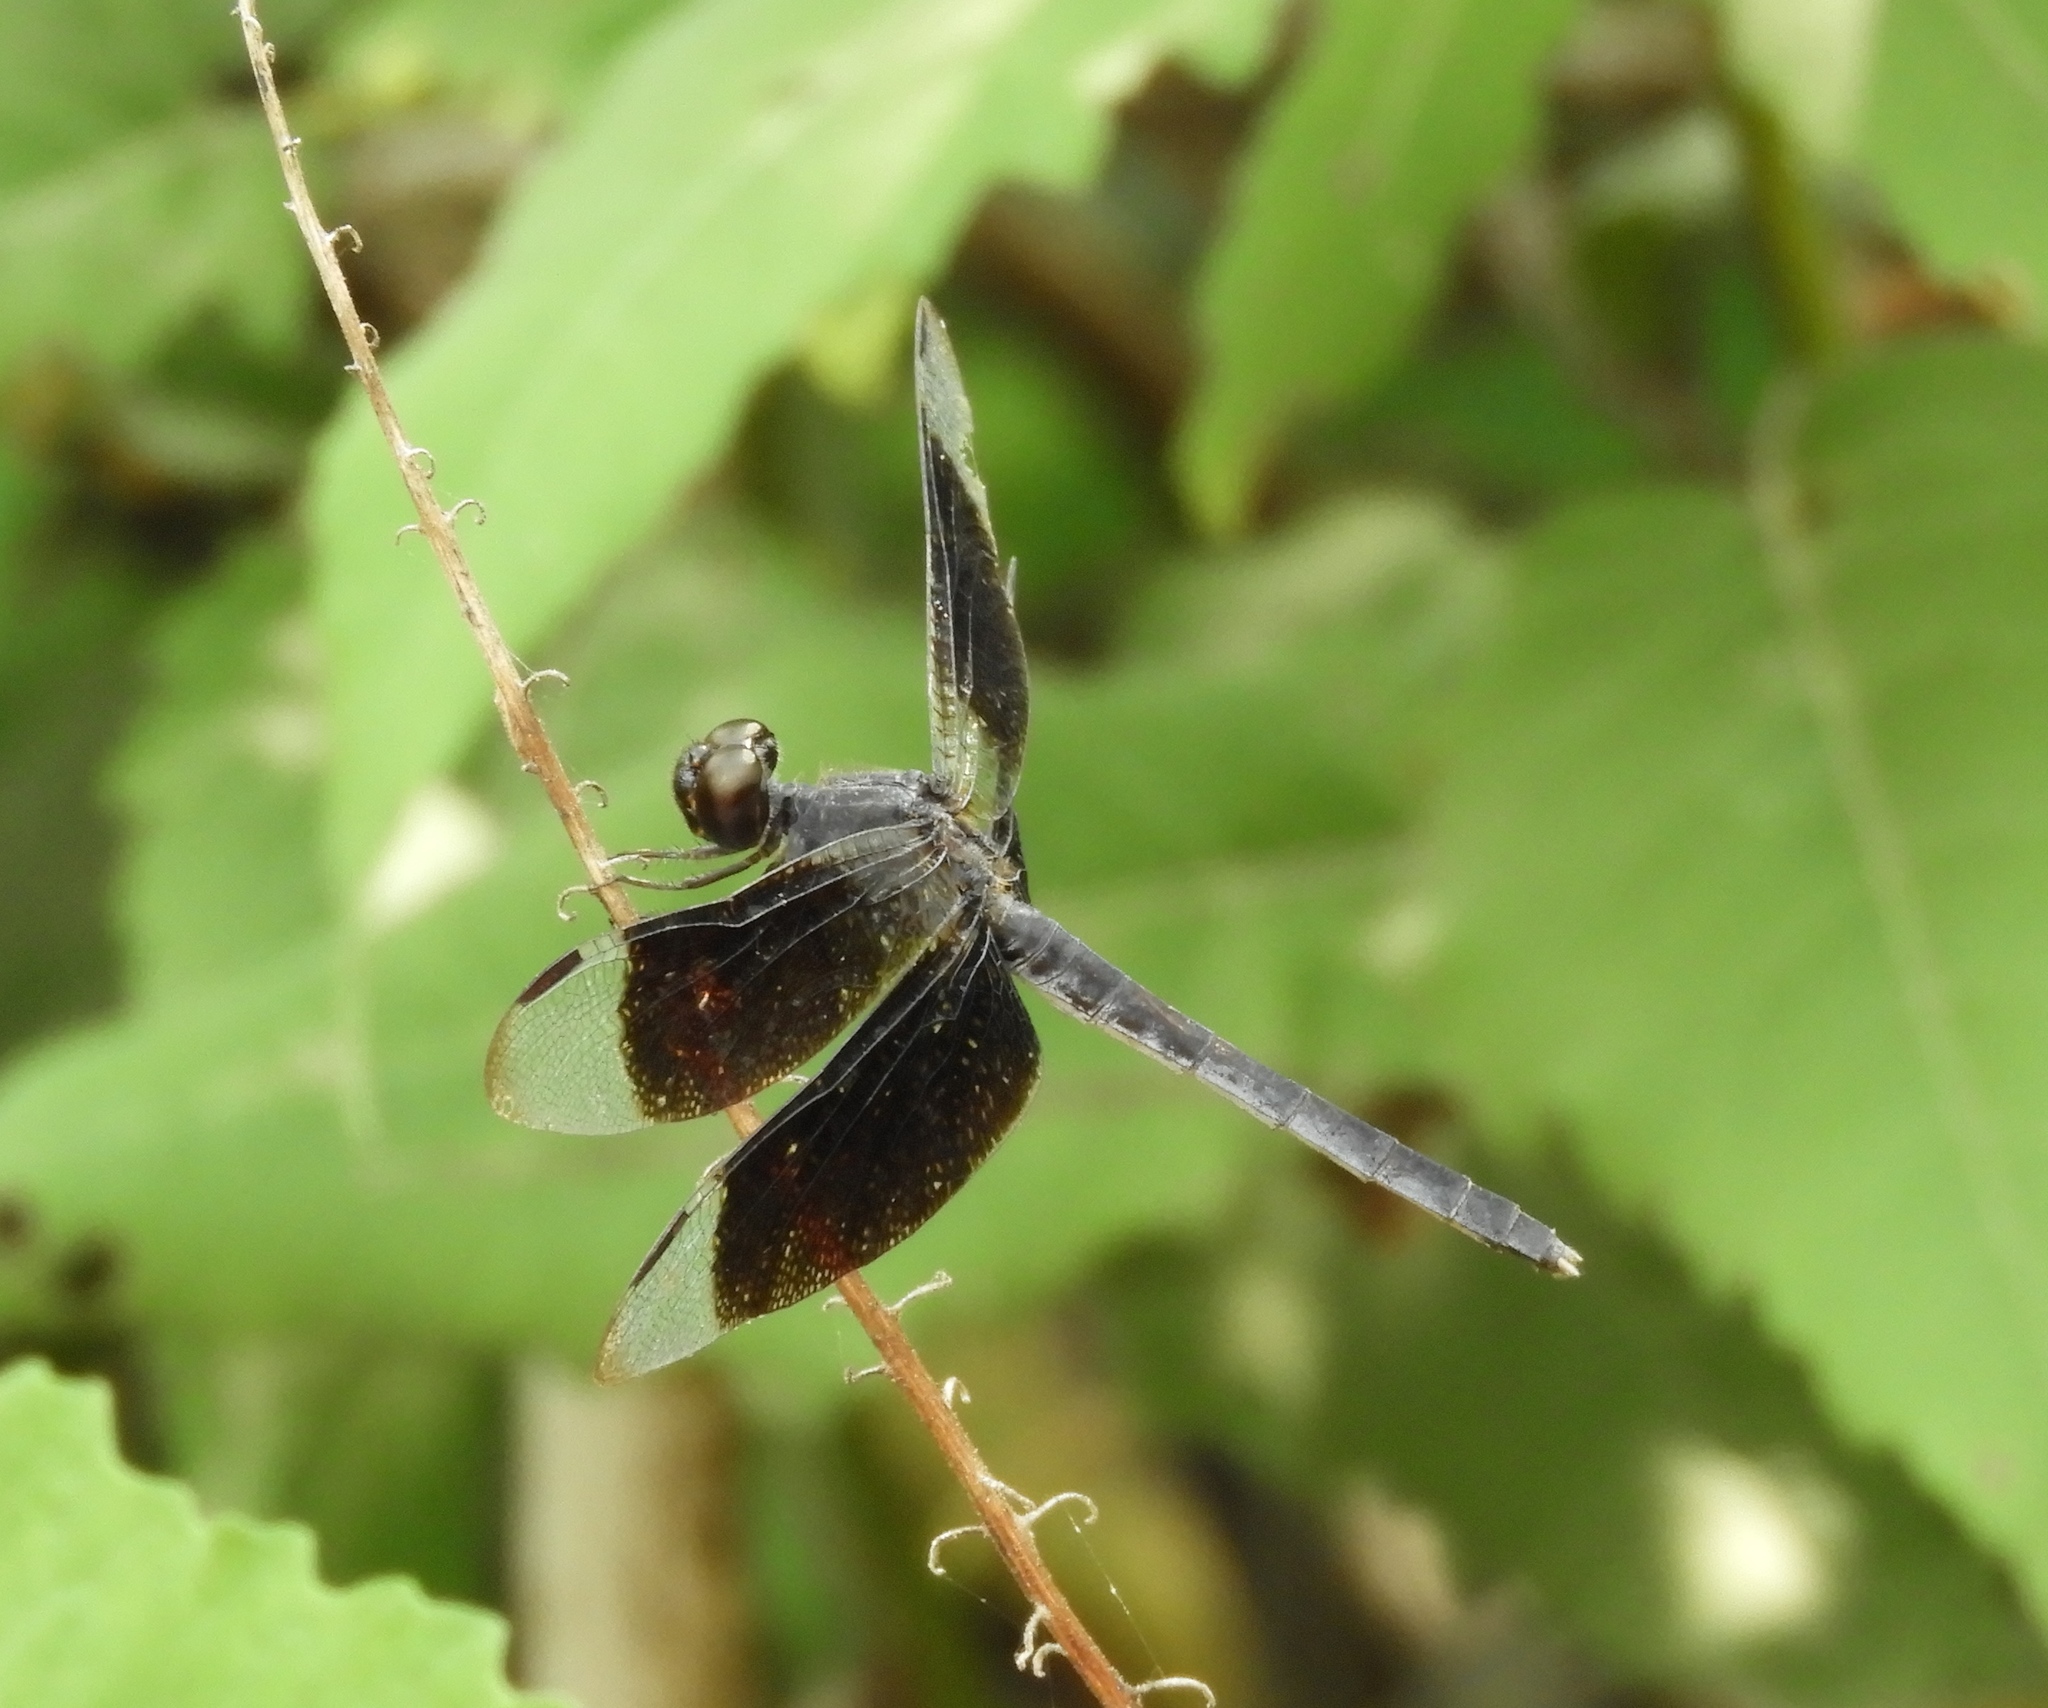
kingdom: Animalia
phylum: Arthropoda
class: Insecta
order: Odonata
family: Libellulidae
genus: Erythrodiplax
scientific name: Erythrodiplax funerea
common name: Black-winged dragonlet
